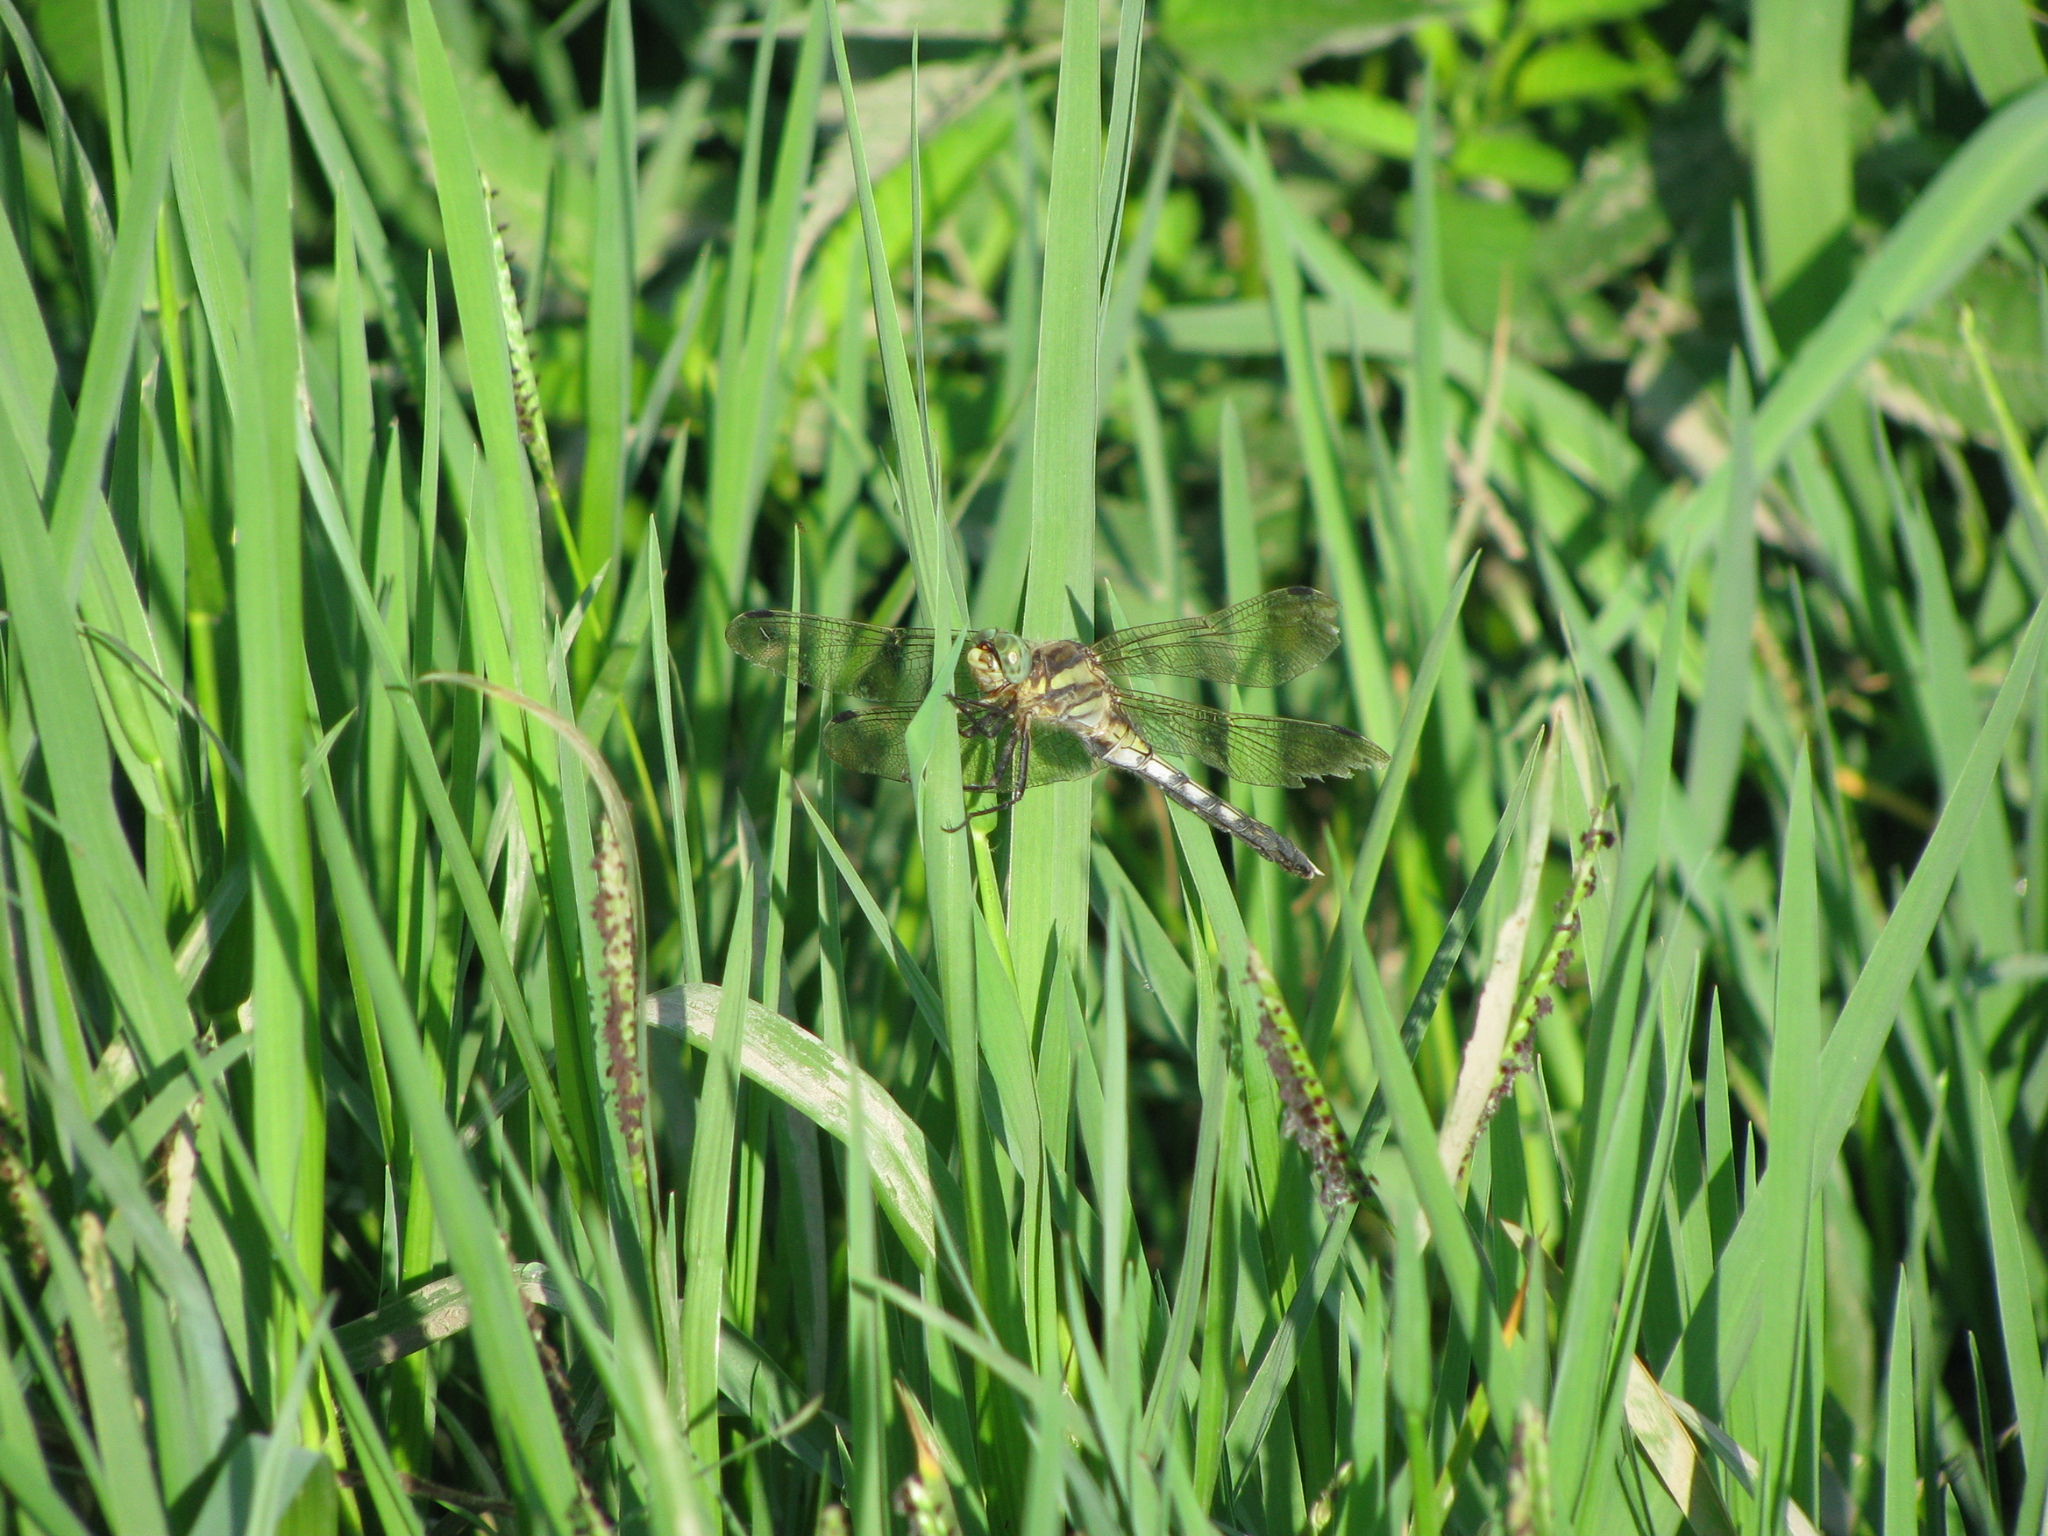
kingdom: Animalia
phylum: Arthropoda
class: Insecta
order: Odonata
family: Libellulidae
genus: Orthetrum
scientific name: Orthetrum albistylum
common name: White-tailed skimmer
